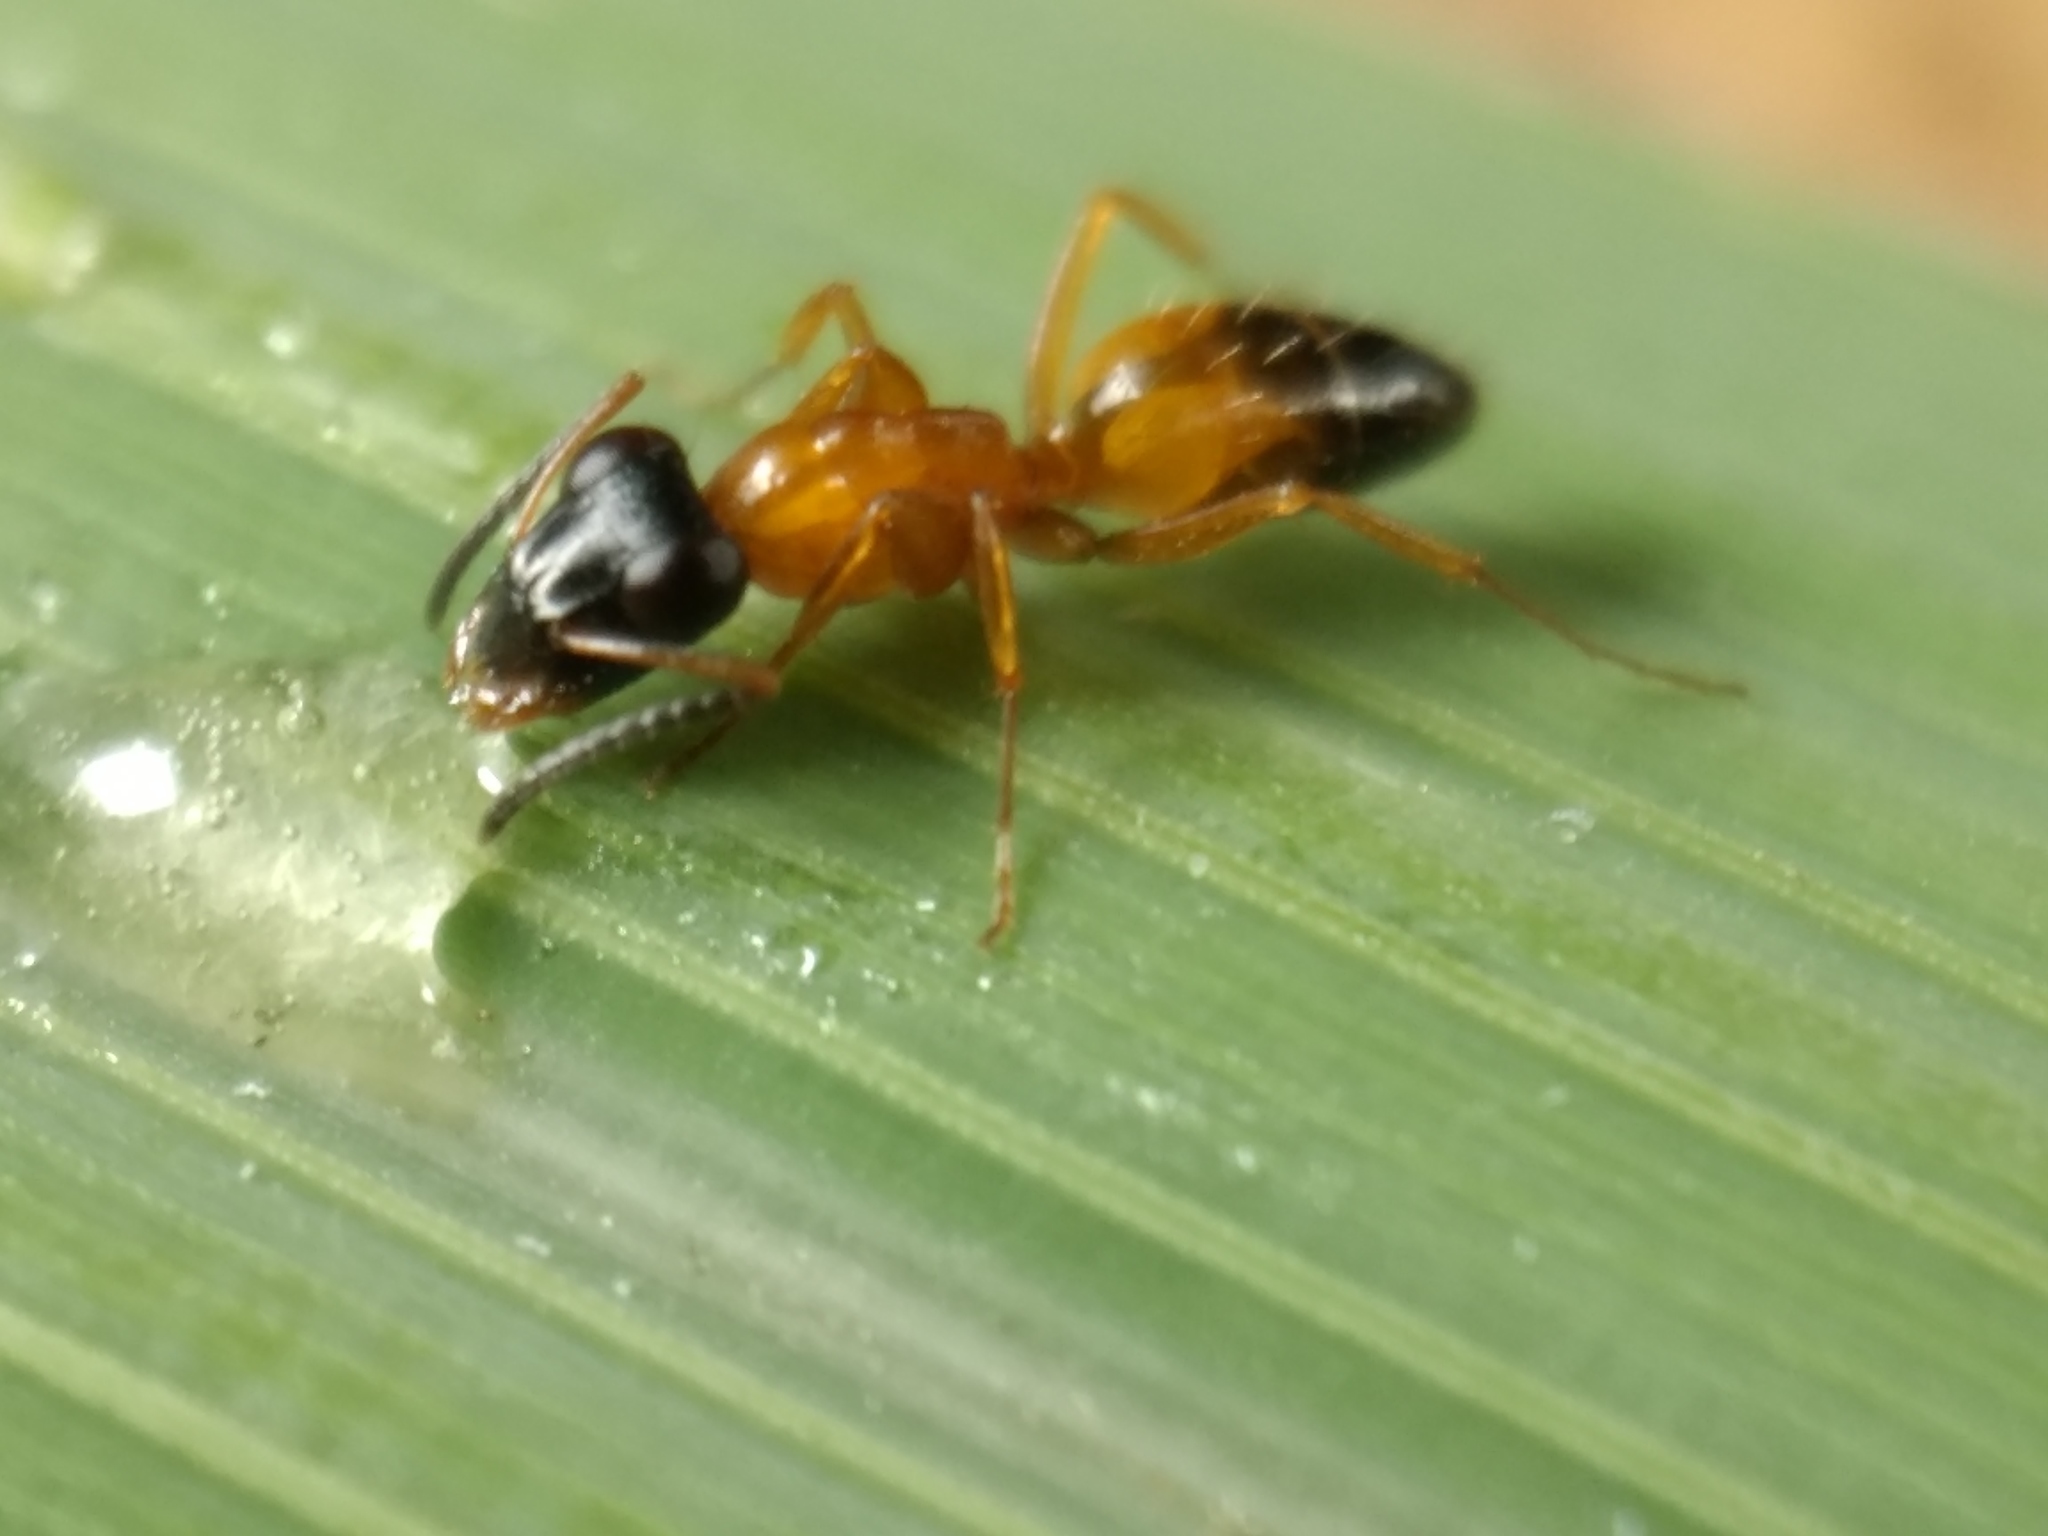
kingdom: Animalia
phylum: Arthropoda
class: Insecta
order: Hymenoptera
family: Formicidae
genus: Opisthopsis
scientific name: Opisthopsis rufithorax
